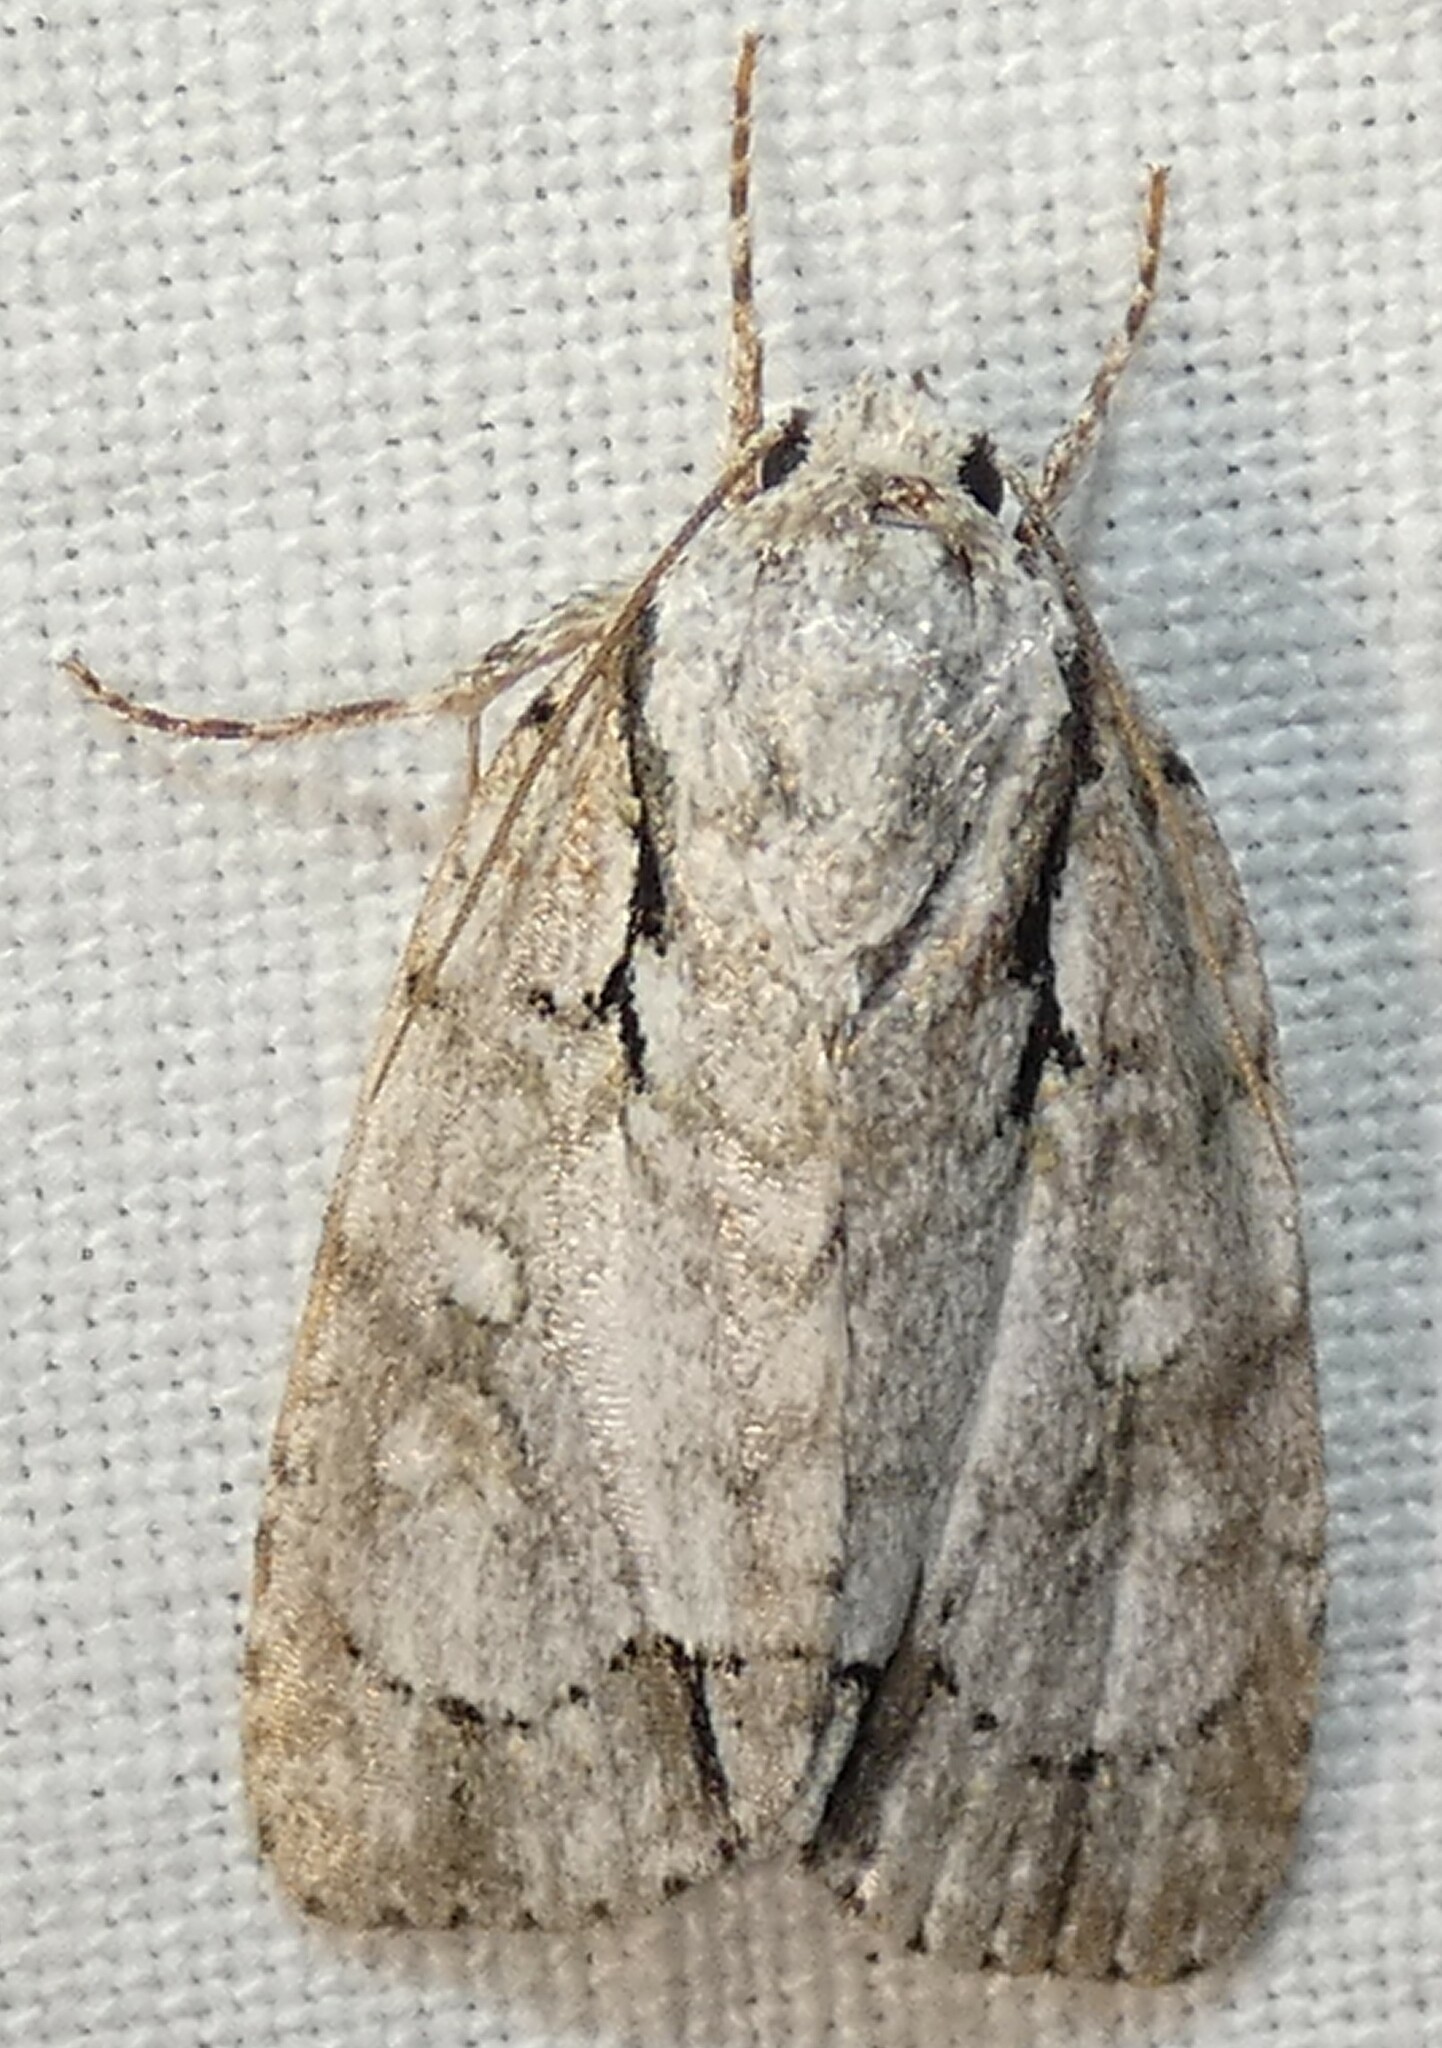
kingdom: Animalia
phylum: Arthropoda
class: Insecta
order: Lepidoptera
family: Noctuidae
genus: Acronicta
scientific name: Acronicta vinnula
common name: Delightful dagger
